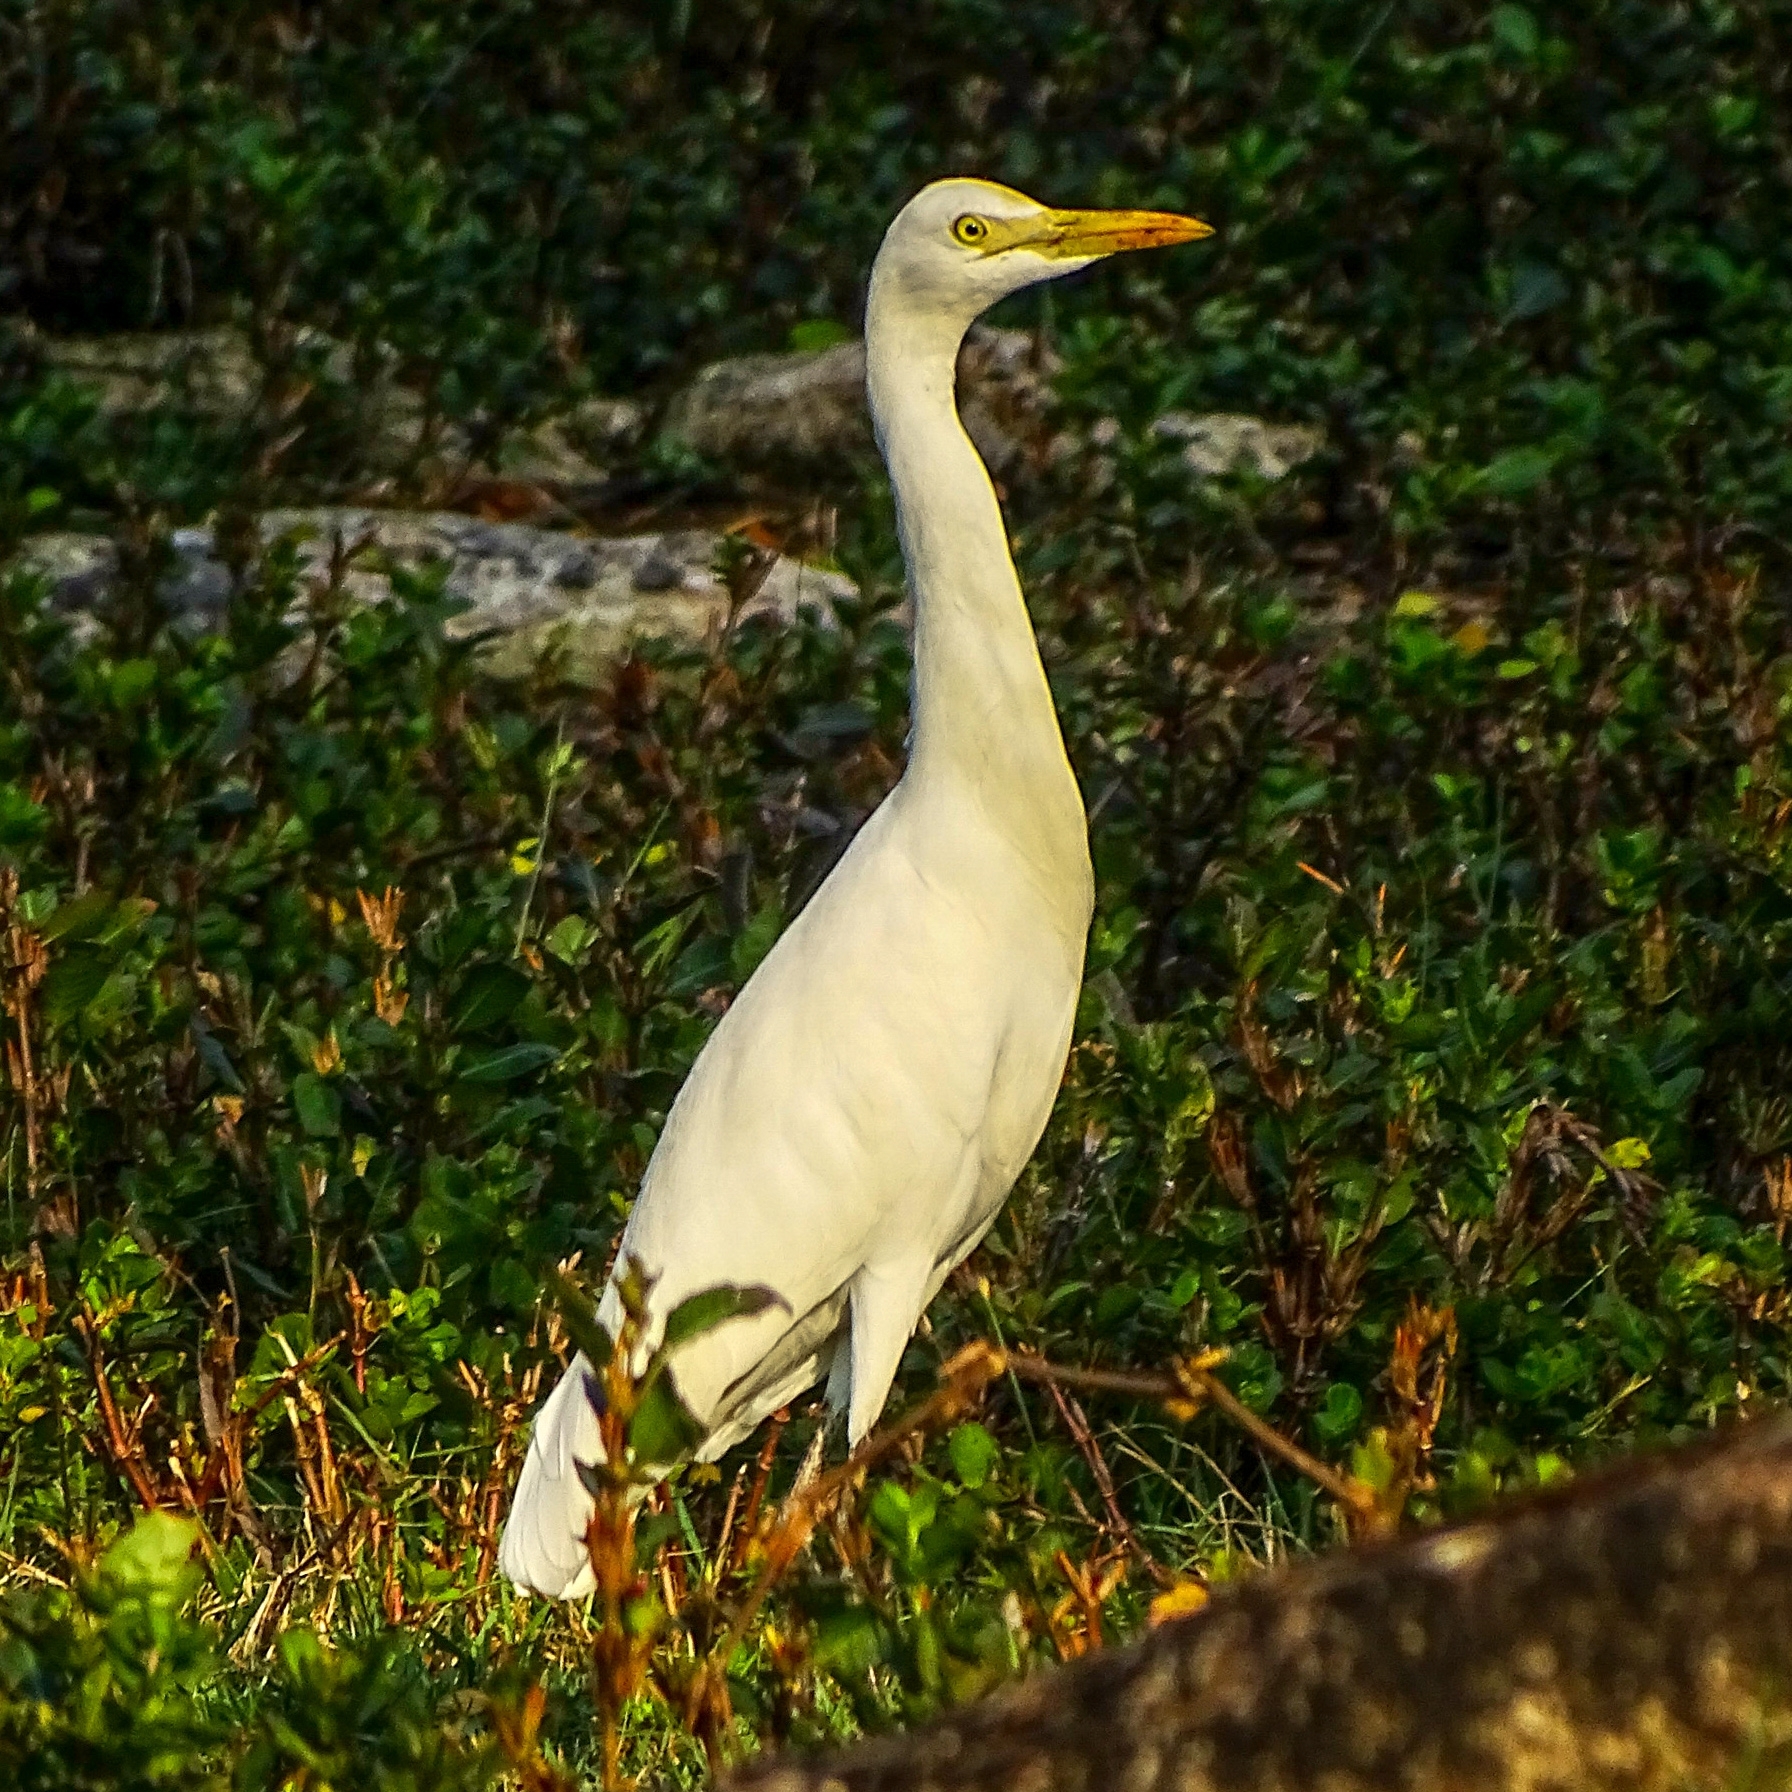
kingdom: Animalia
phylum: Chordata
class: Aves
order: Pelecaniformes
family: Ardeidae
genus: Bubulcus
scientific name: Bubulcus coromandus
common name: Eastern cattle egret
